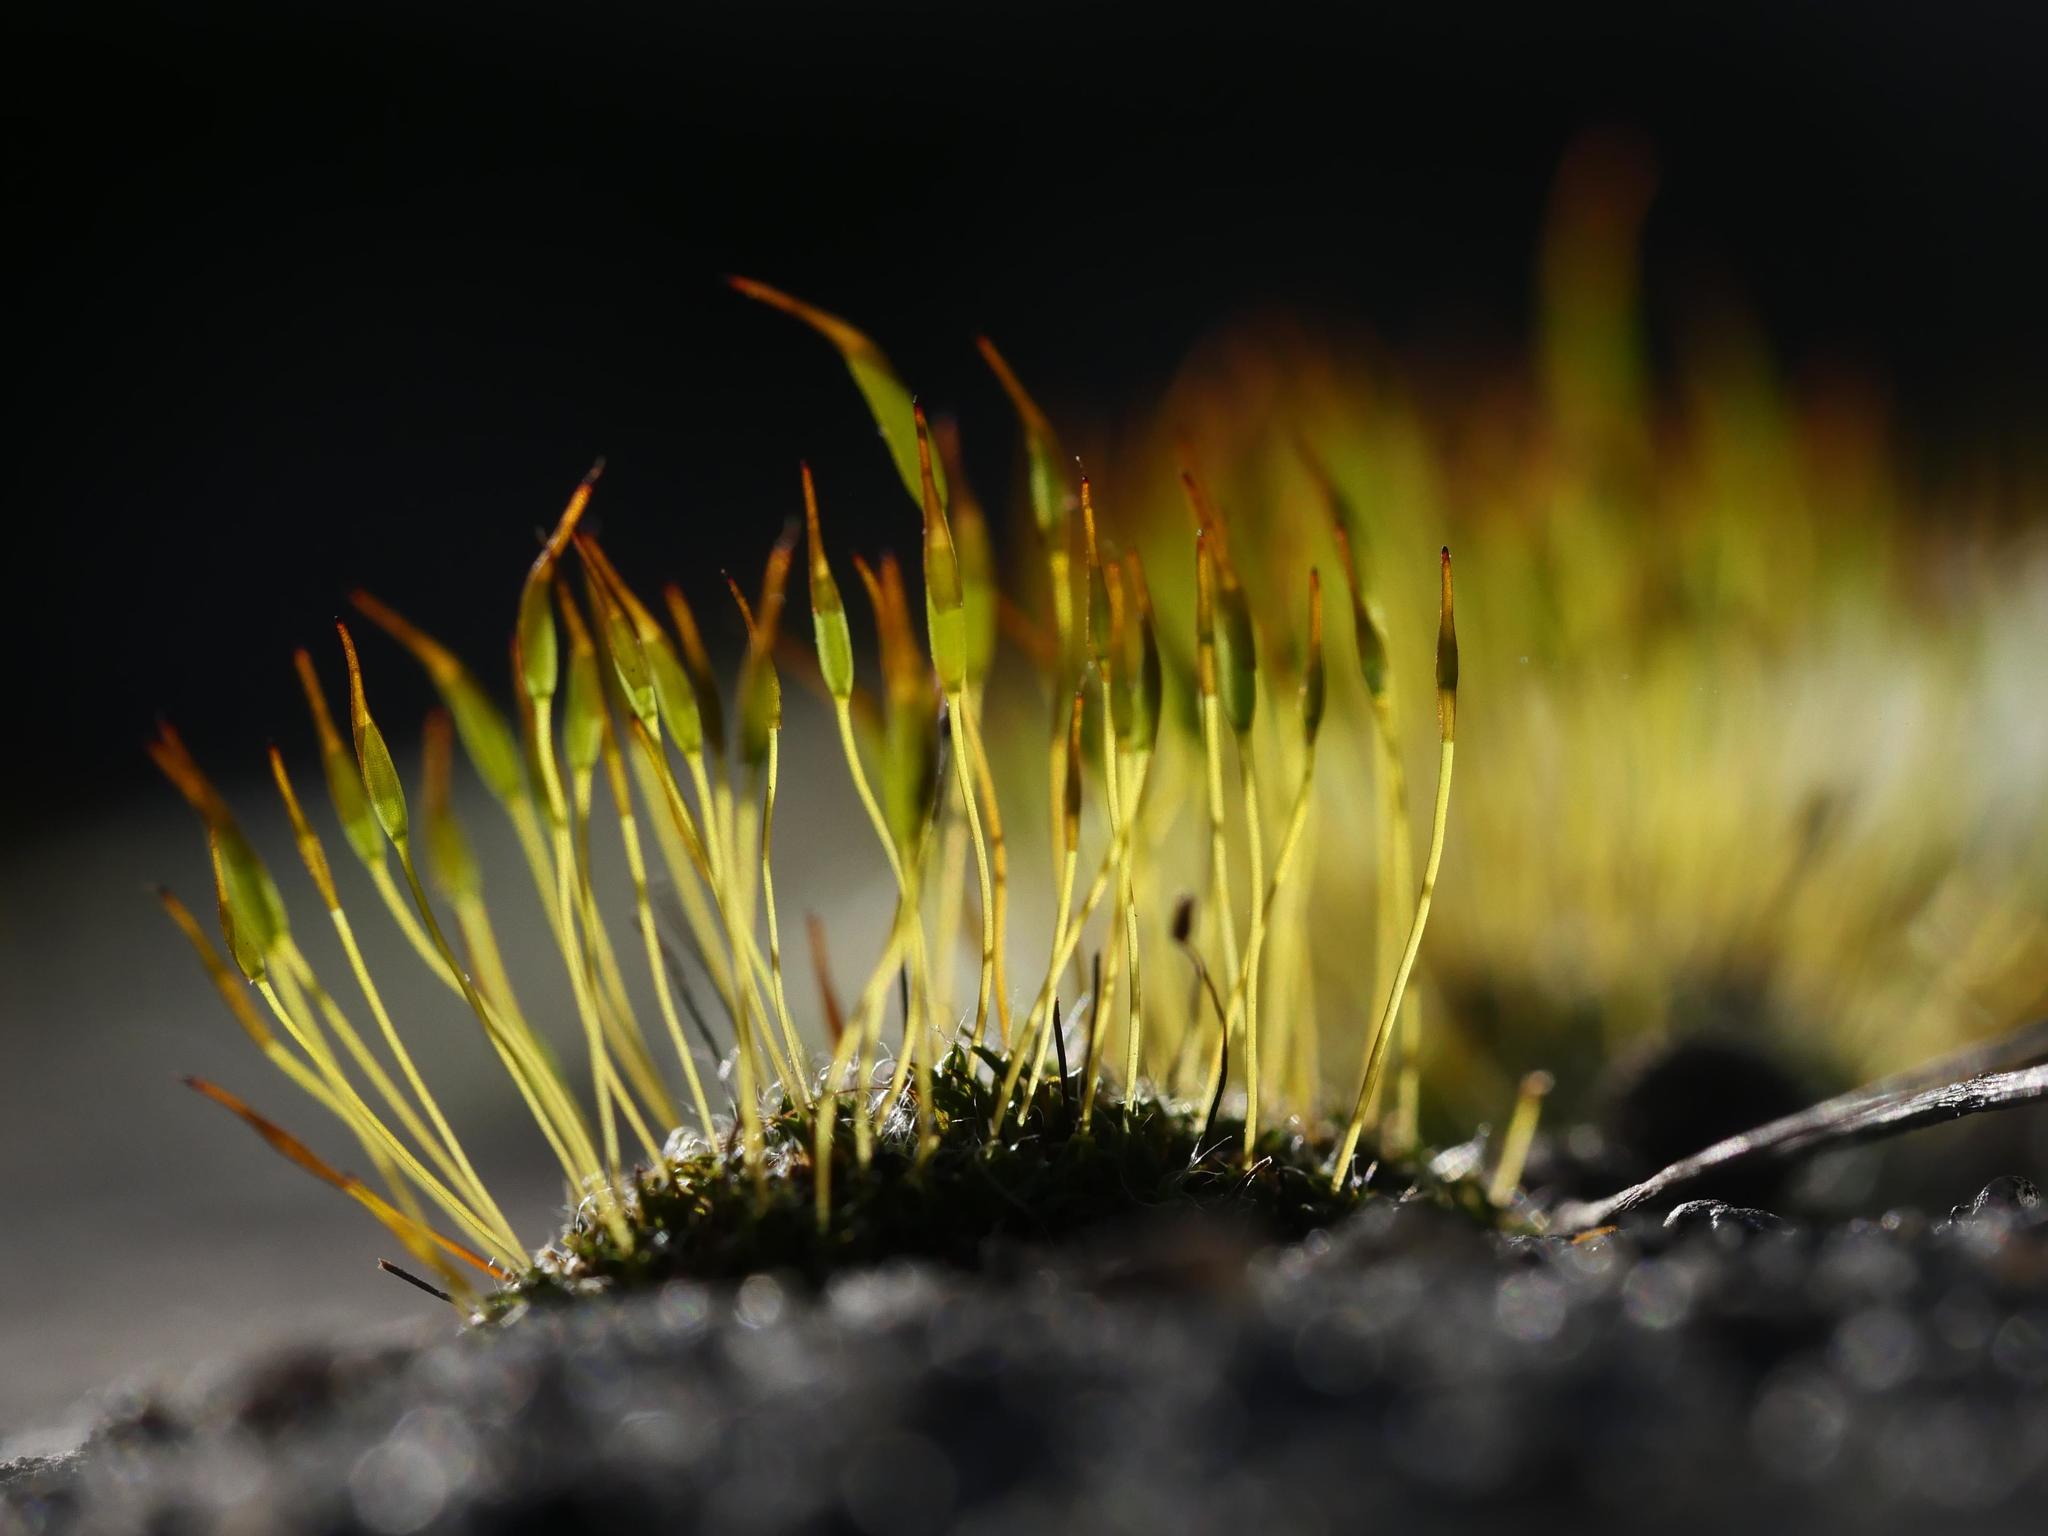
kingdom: Plantae
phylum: Bryophyta
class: Bryopsida
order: Pottiales
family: Pottiaceae
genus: Tortula
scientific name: Tortula muralis
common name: Wall screw-moss
